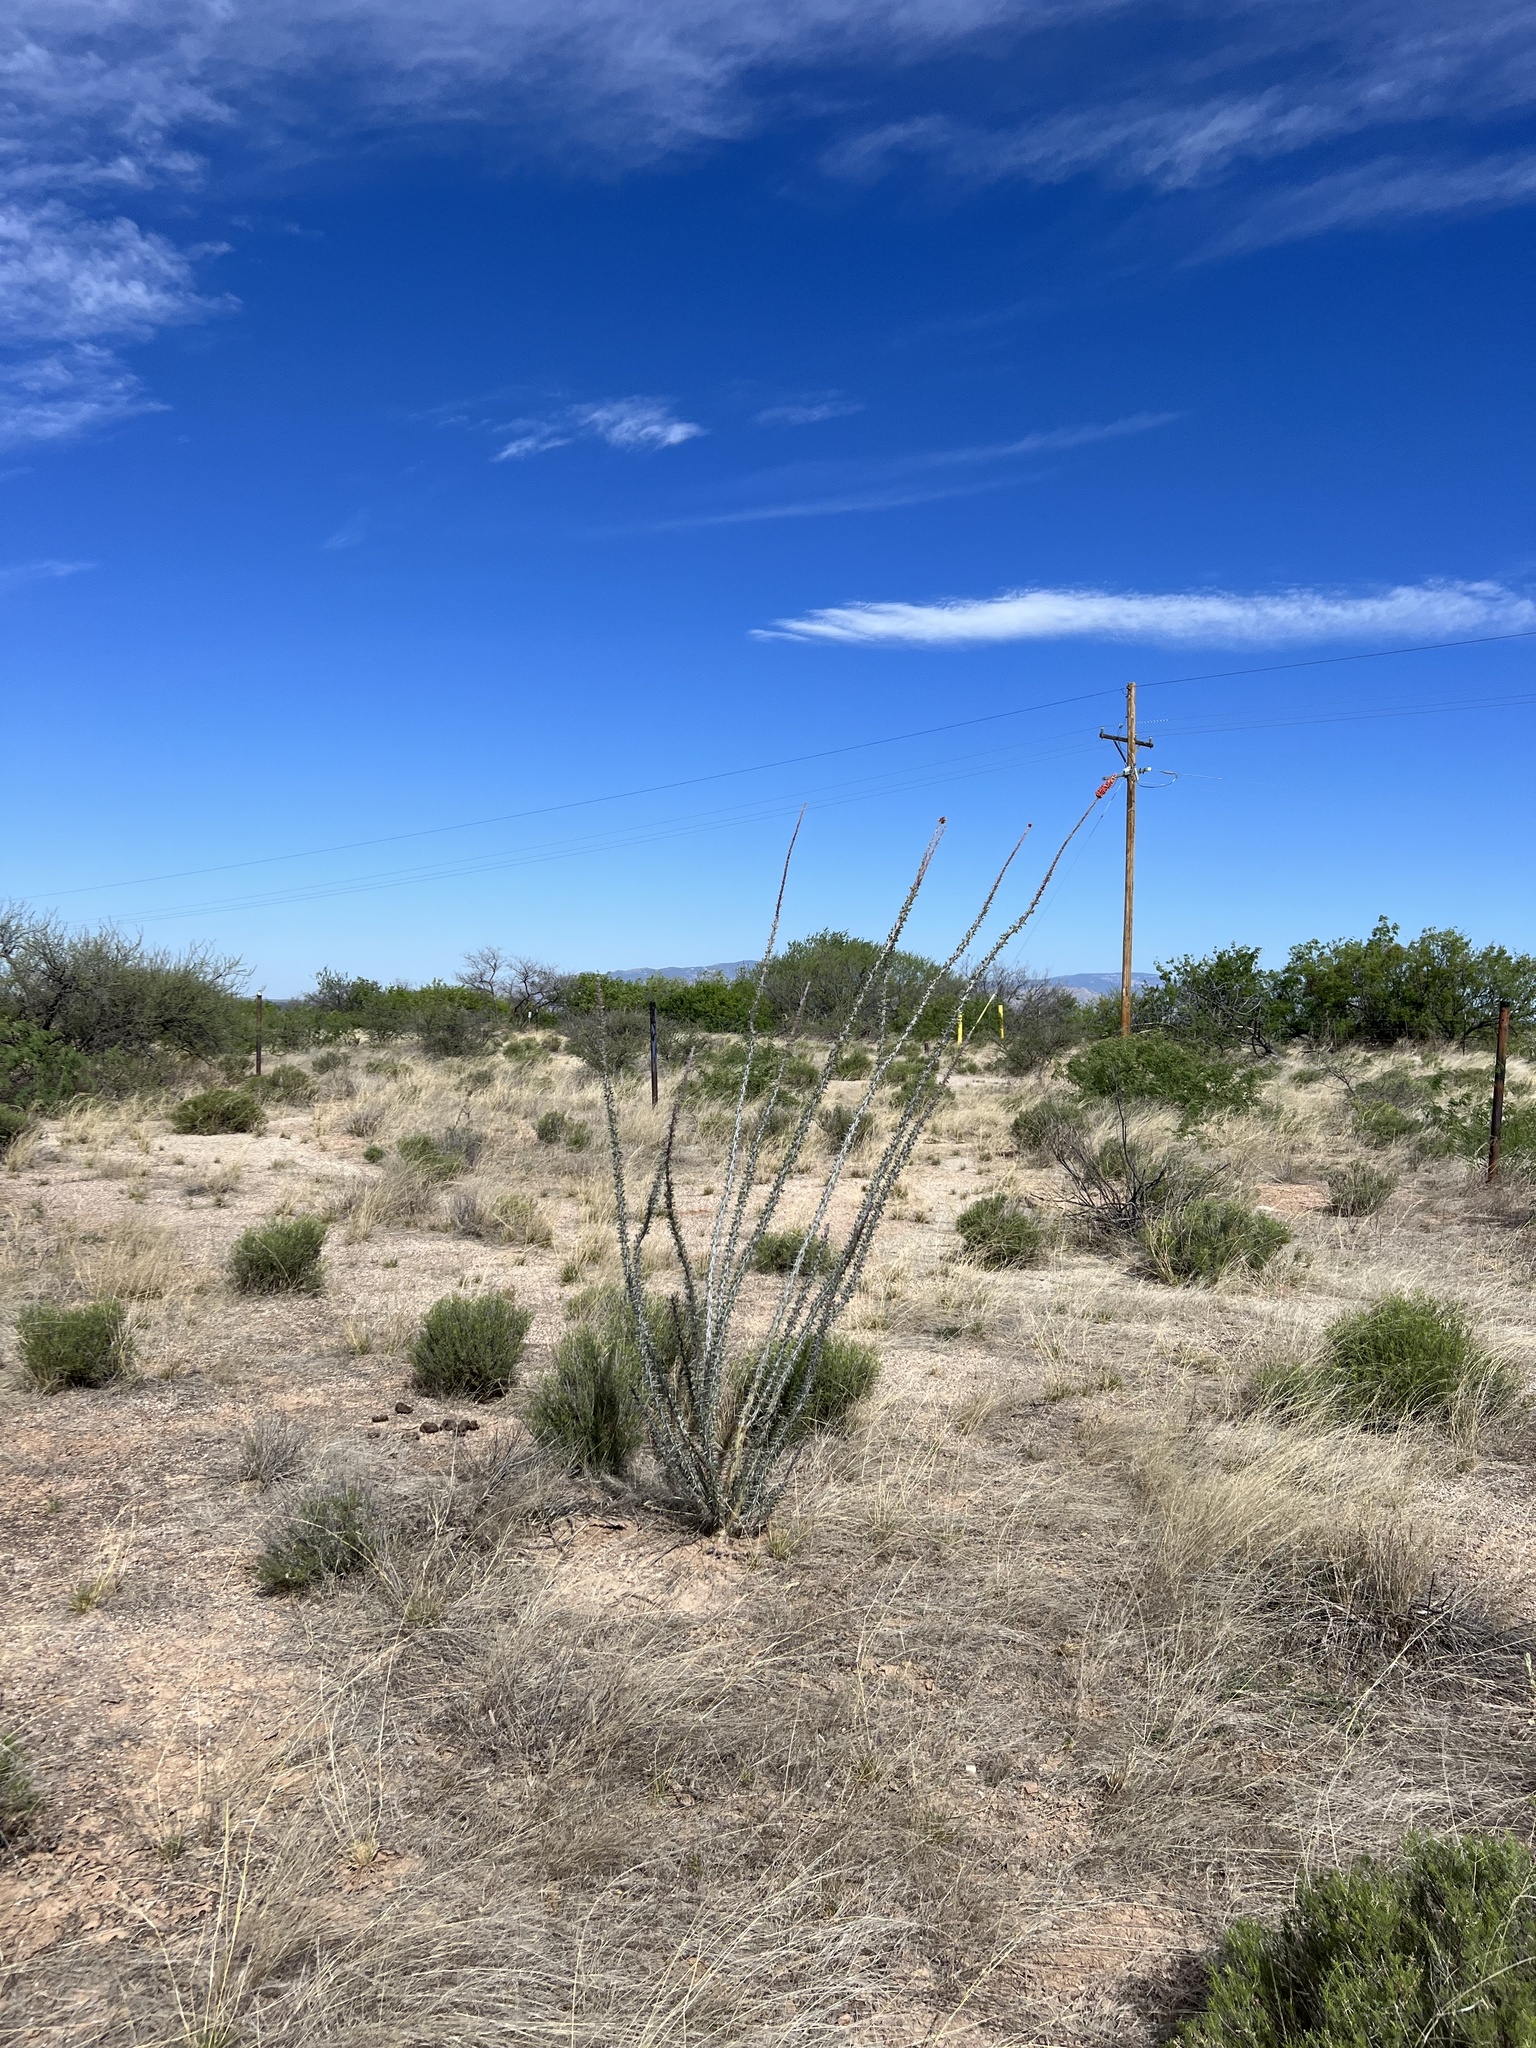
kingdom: Plantae
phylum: Tracheophyta
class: Magnoliopsida
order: Ericales
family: Fouquieriaceae
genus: Fouquieria
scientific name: Fouquieria splendens
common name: Vine-cactus
